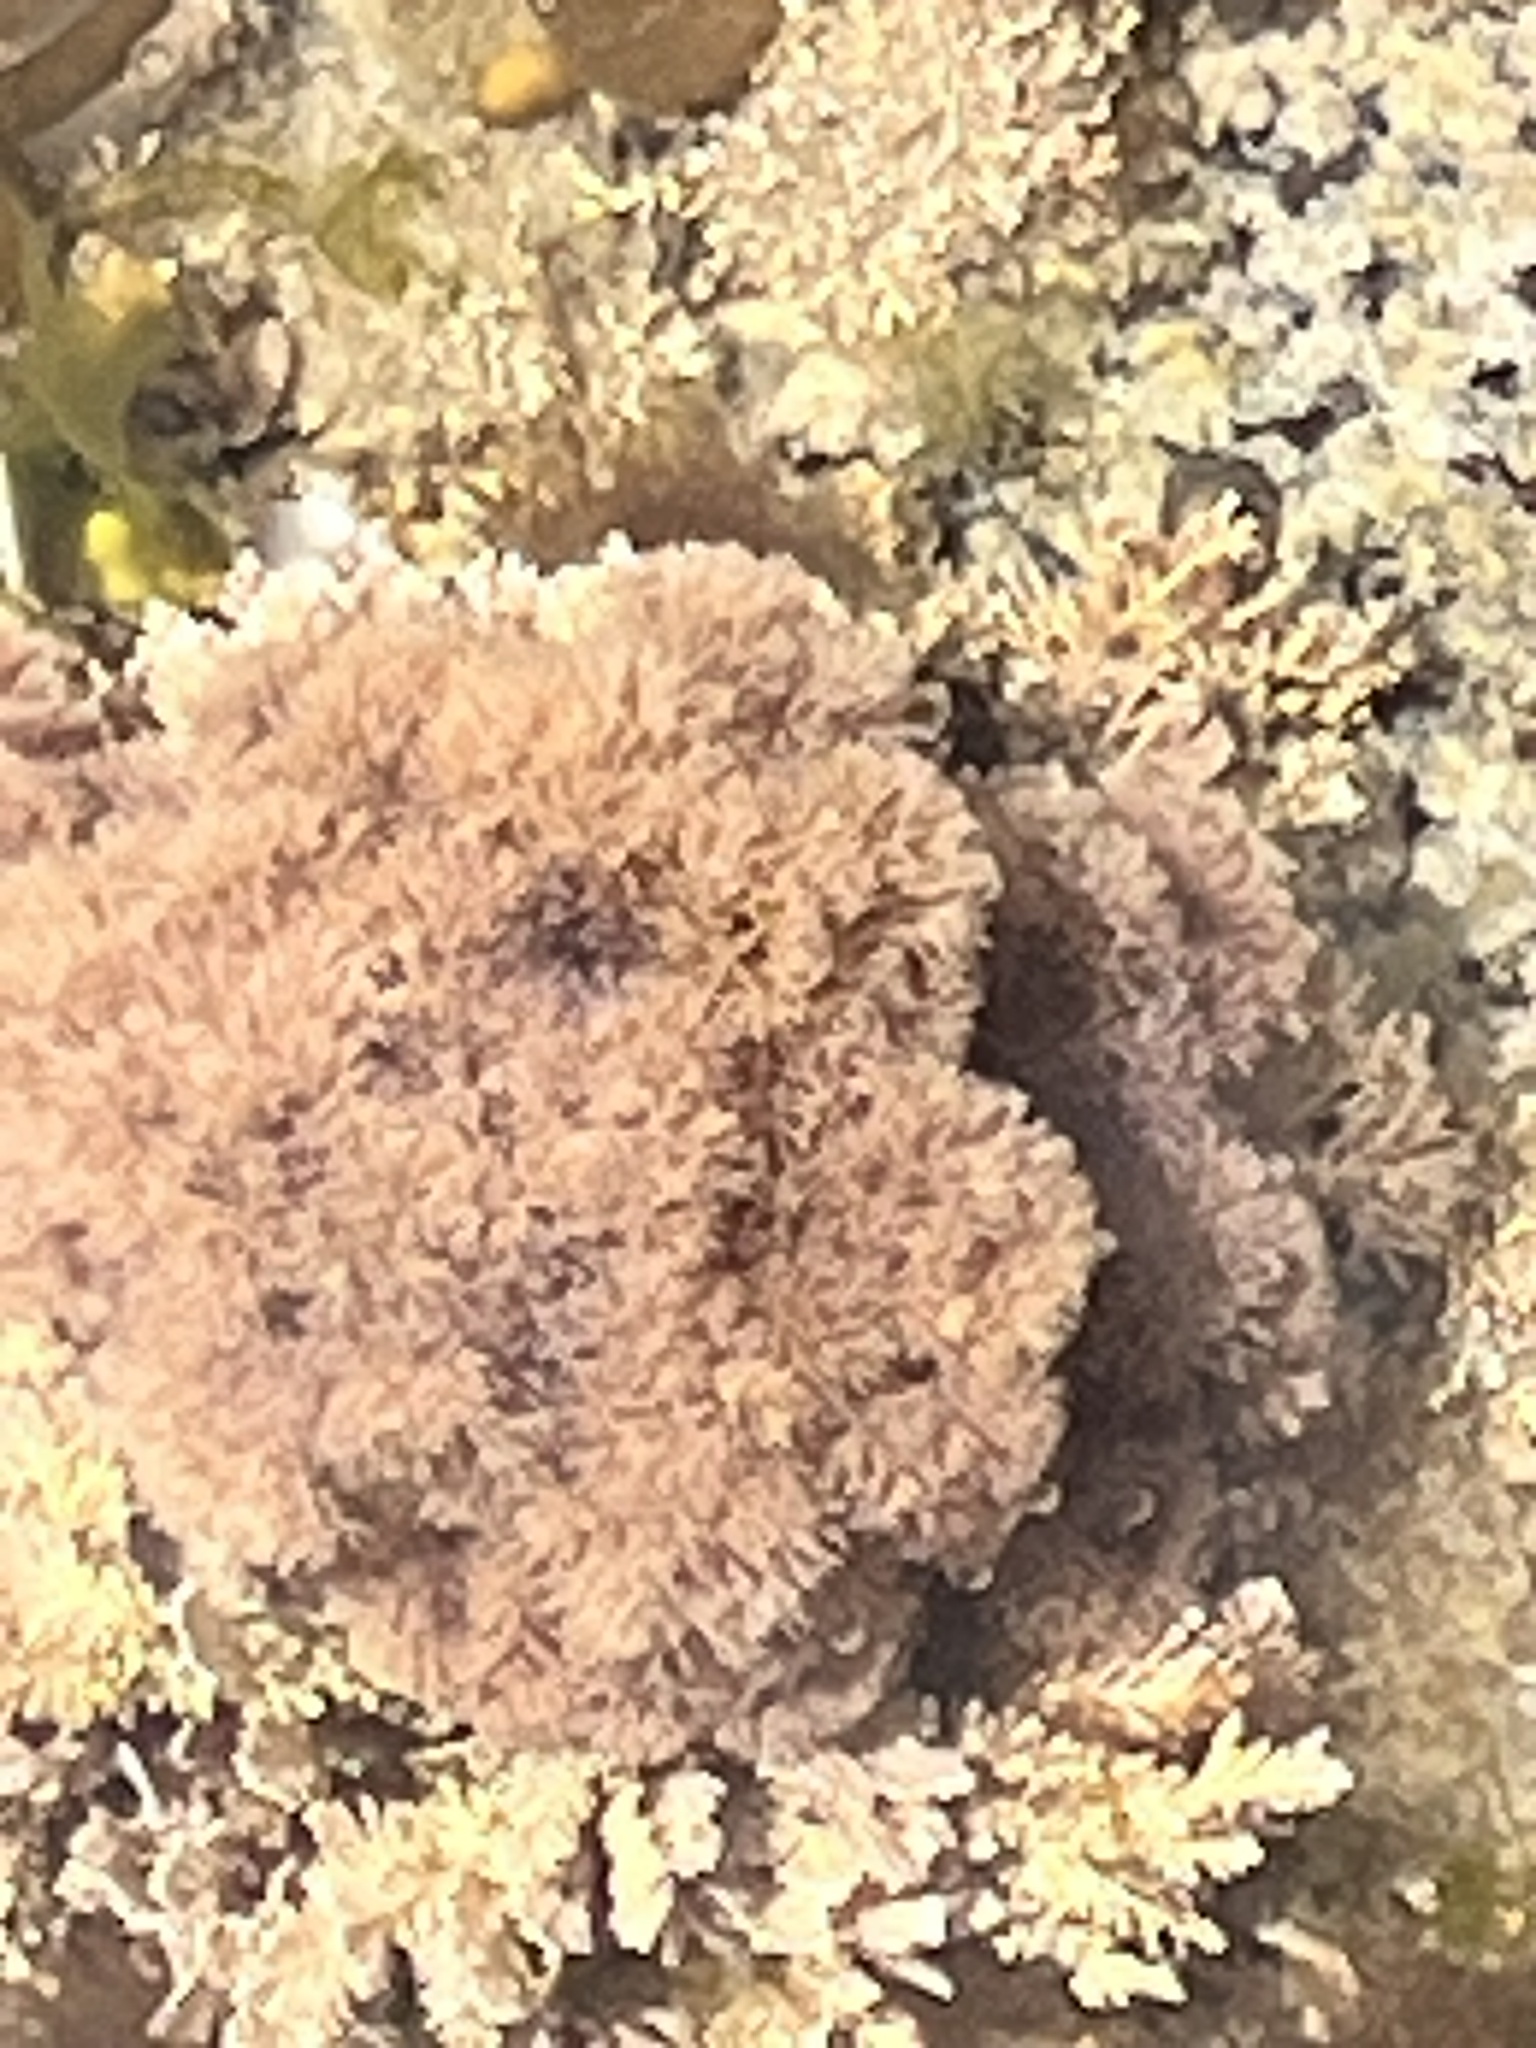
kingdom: Plantae
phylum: Rhodophyta
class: Florideophyceae
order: Corallinales
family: Corallinaceae
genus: Jania
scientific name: Jania sphaeroramosa
